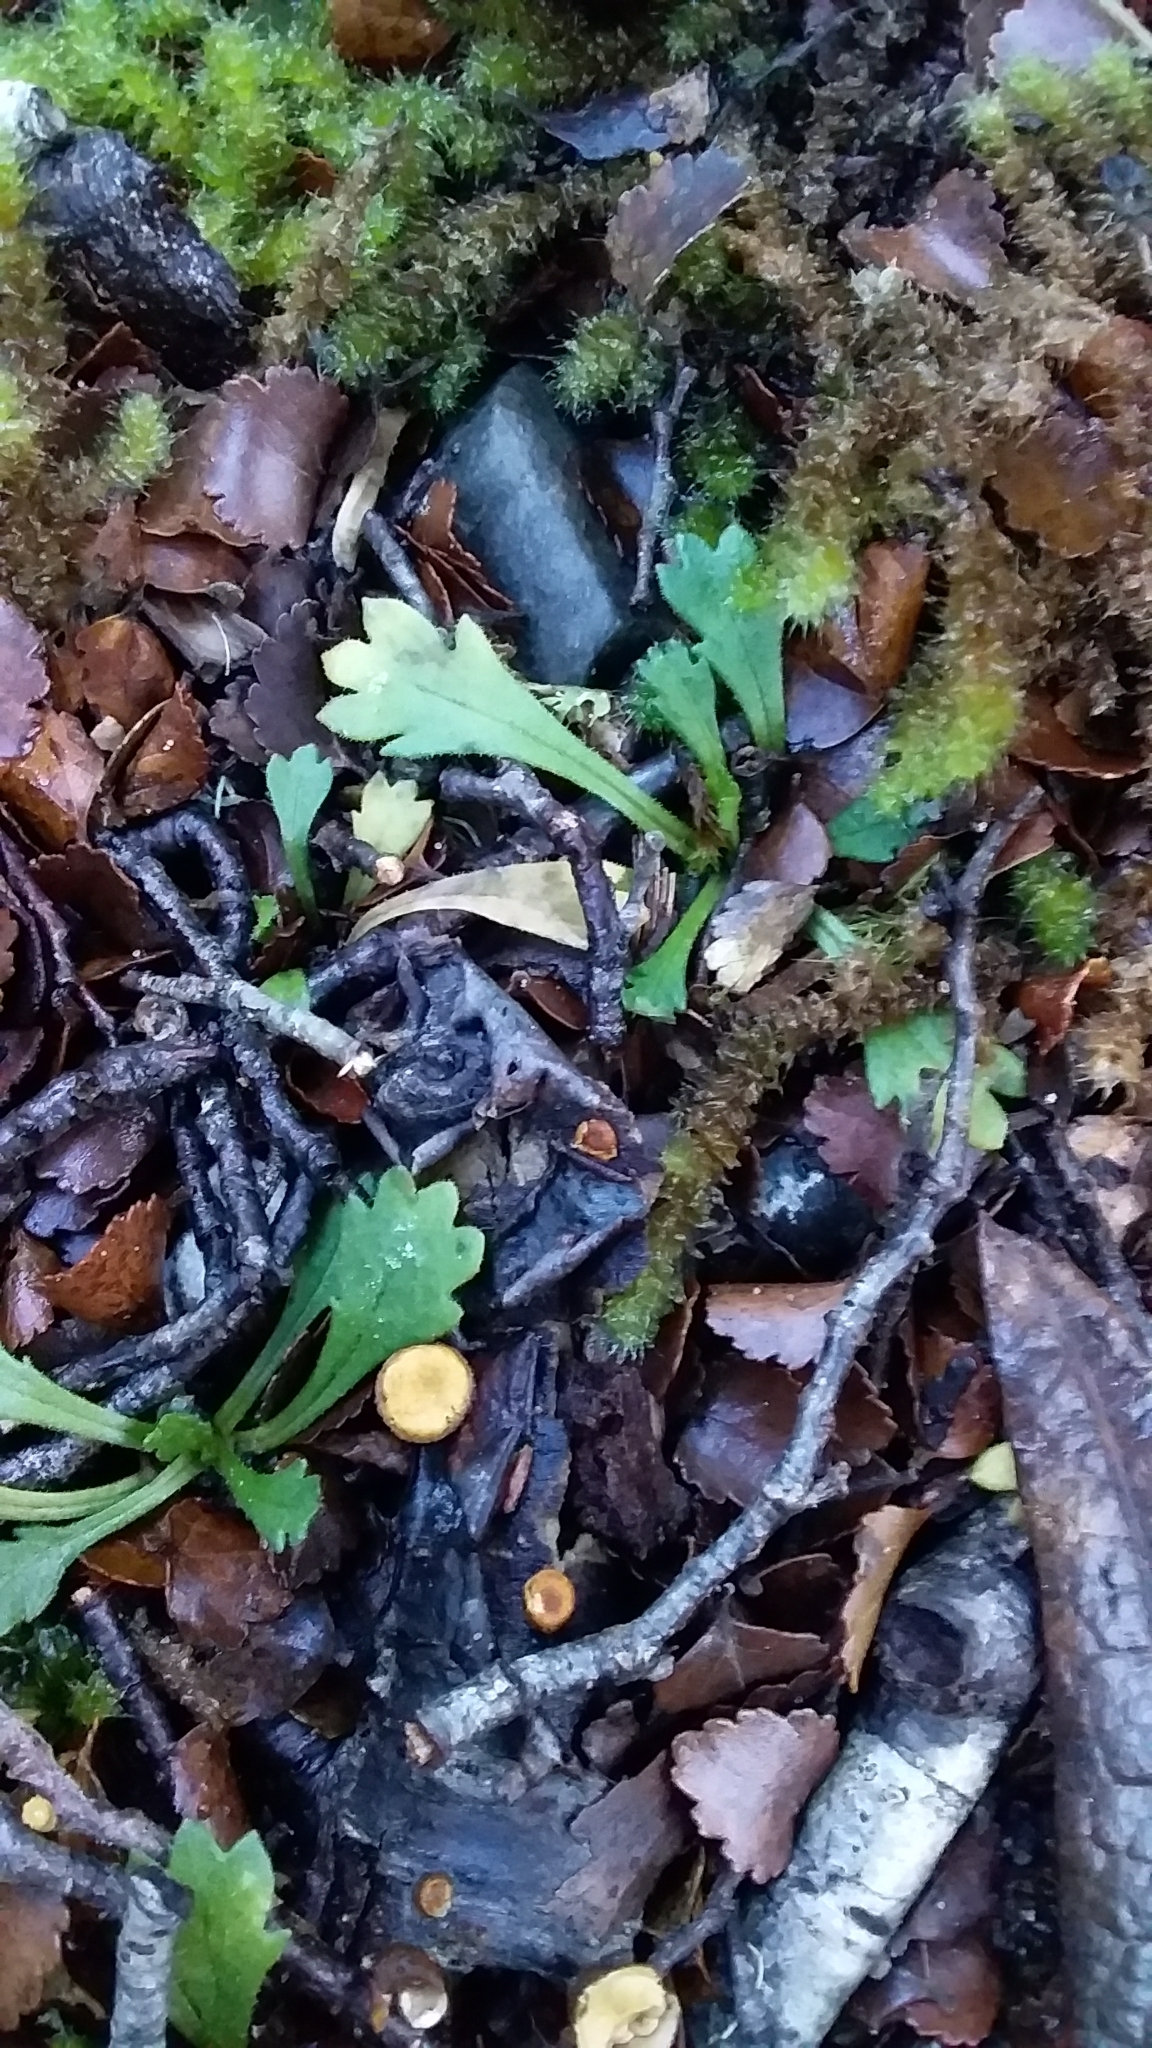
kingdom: Plantae
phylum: Tracheophyta
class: Magnoliopsida
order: Asterales
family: Asteraceae
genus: Brachyscome
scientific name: Brachyscome radicata
